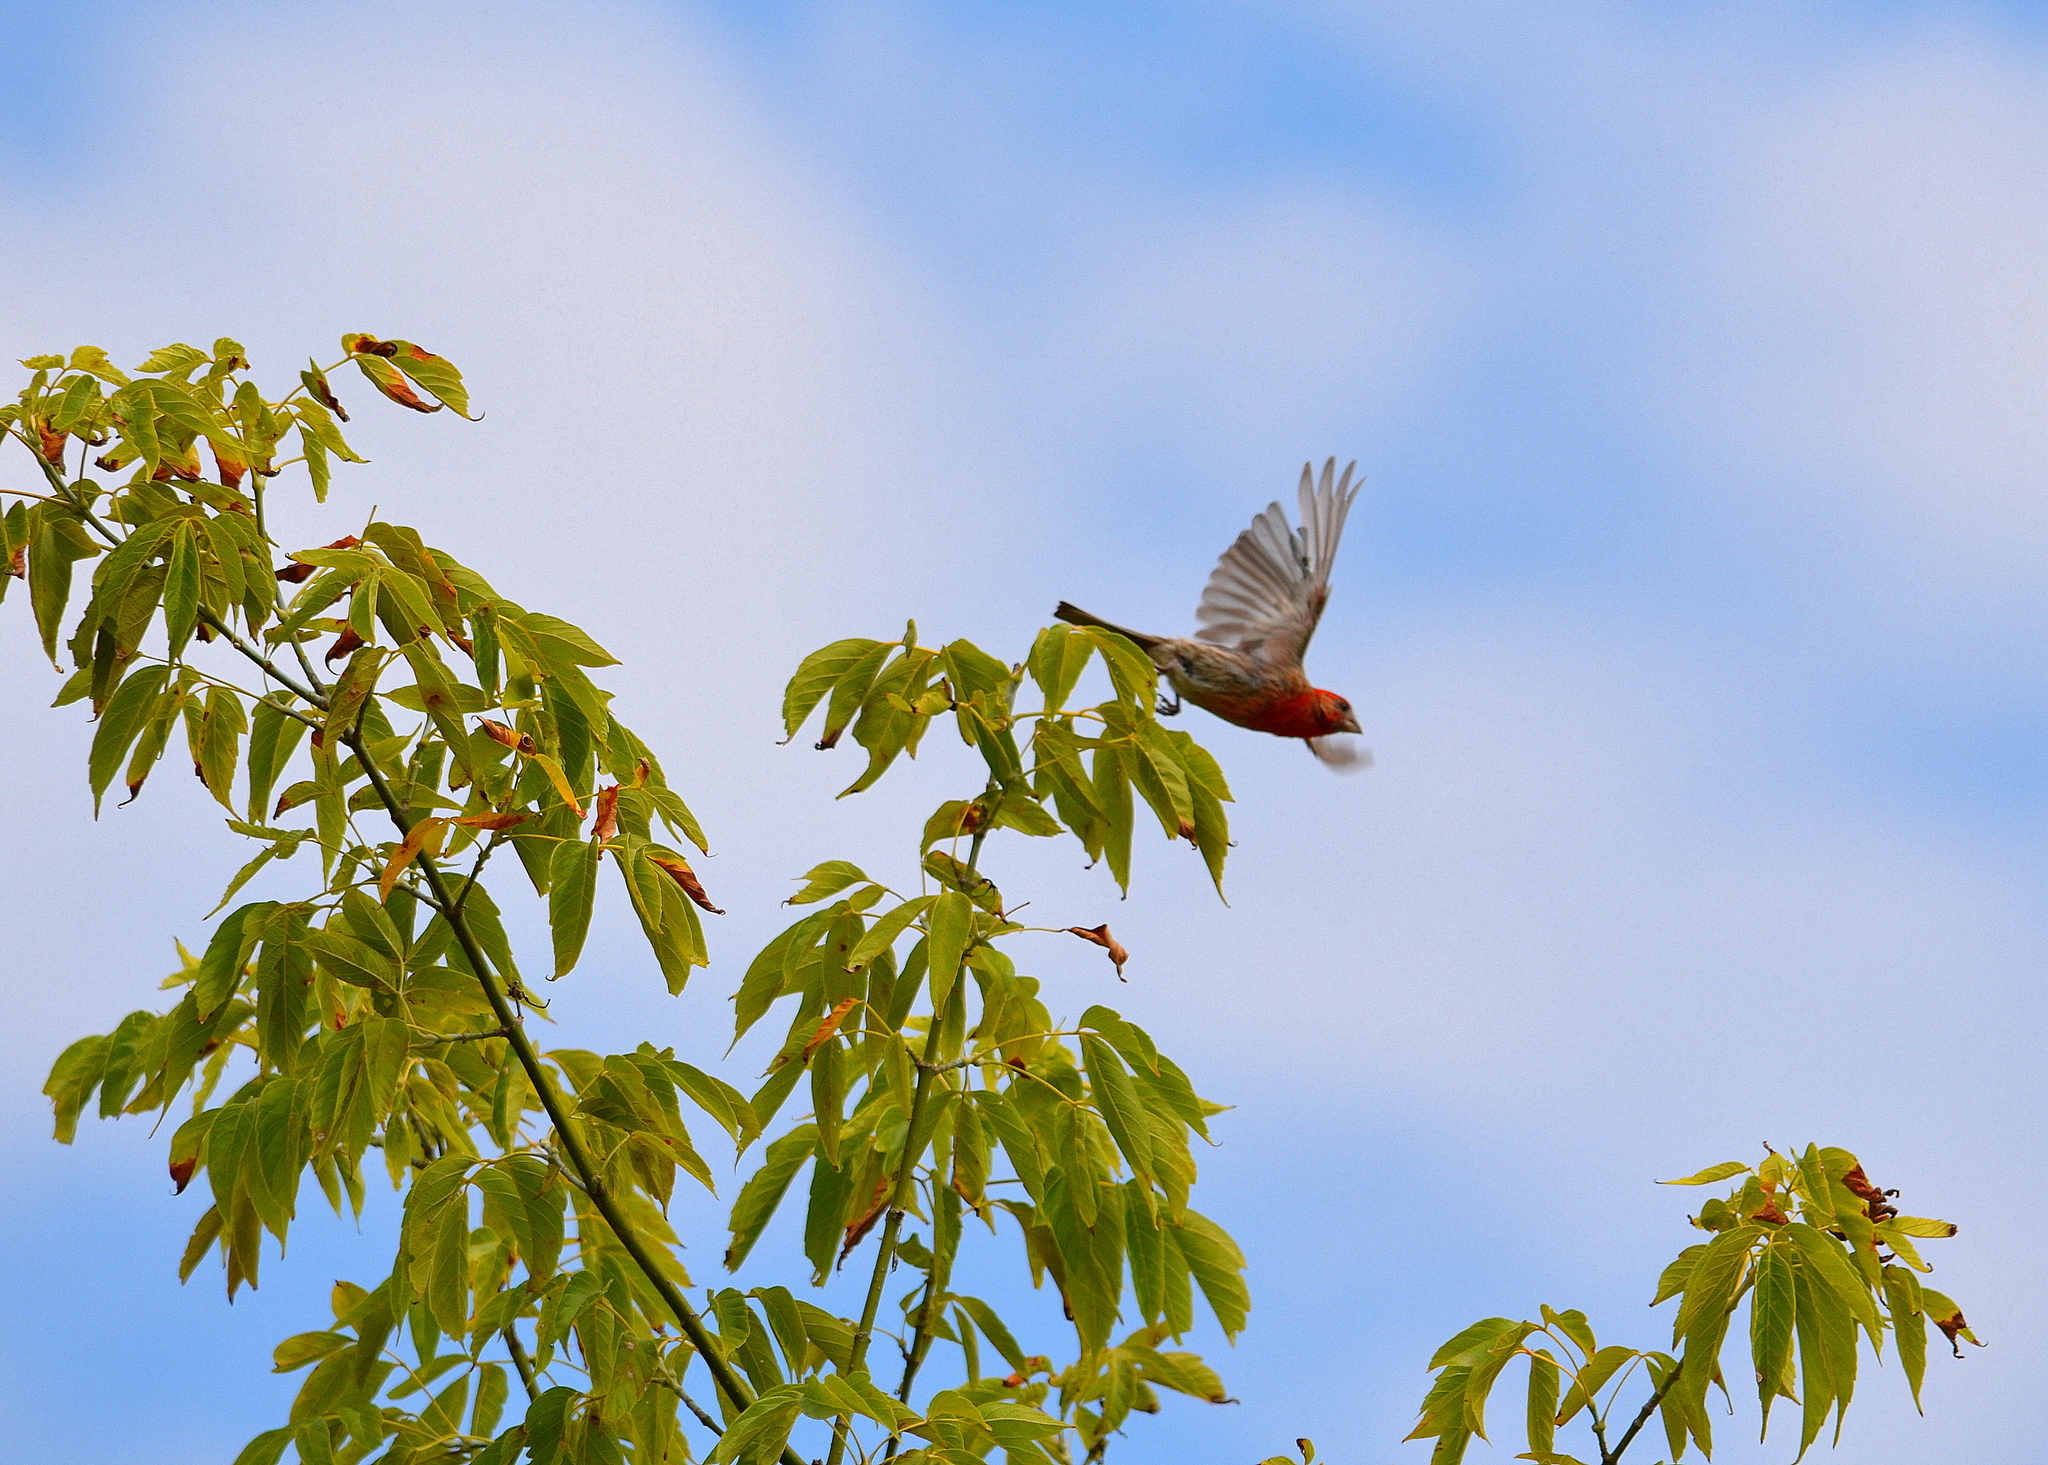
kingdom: Animalia
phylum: Chordata
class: Aves
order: Passeriformes
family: Fringillidae
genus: Haemorhous
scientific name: Haemorhous mexicanus
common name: House finch
